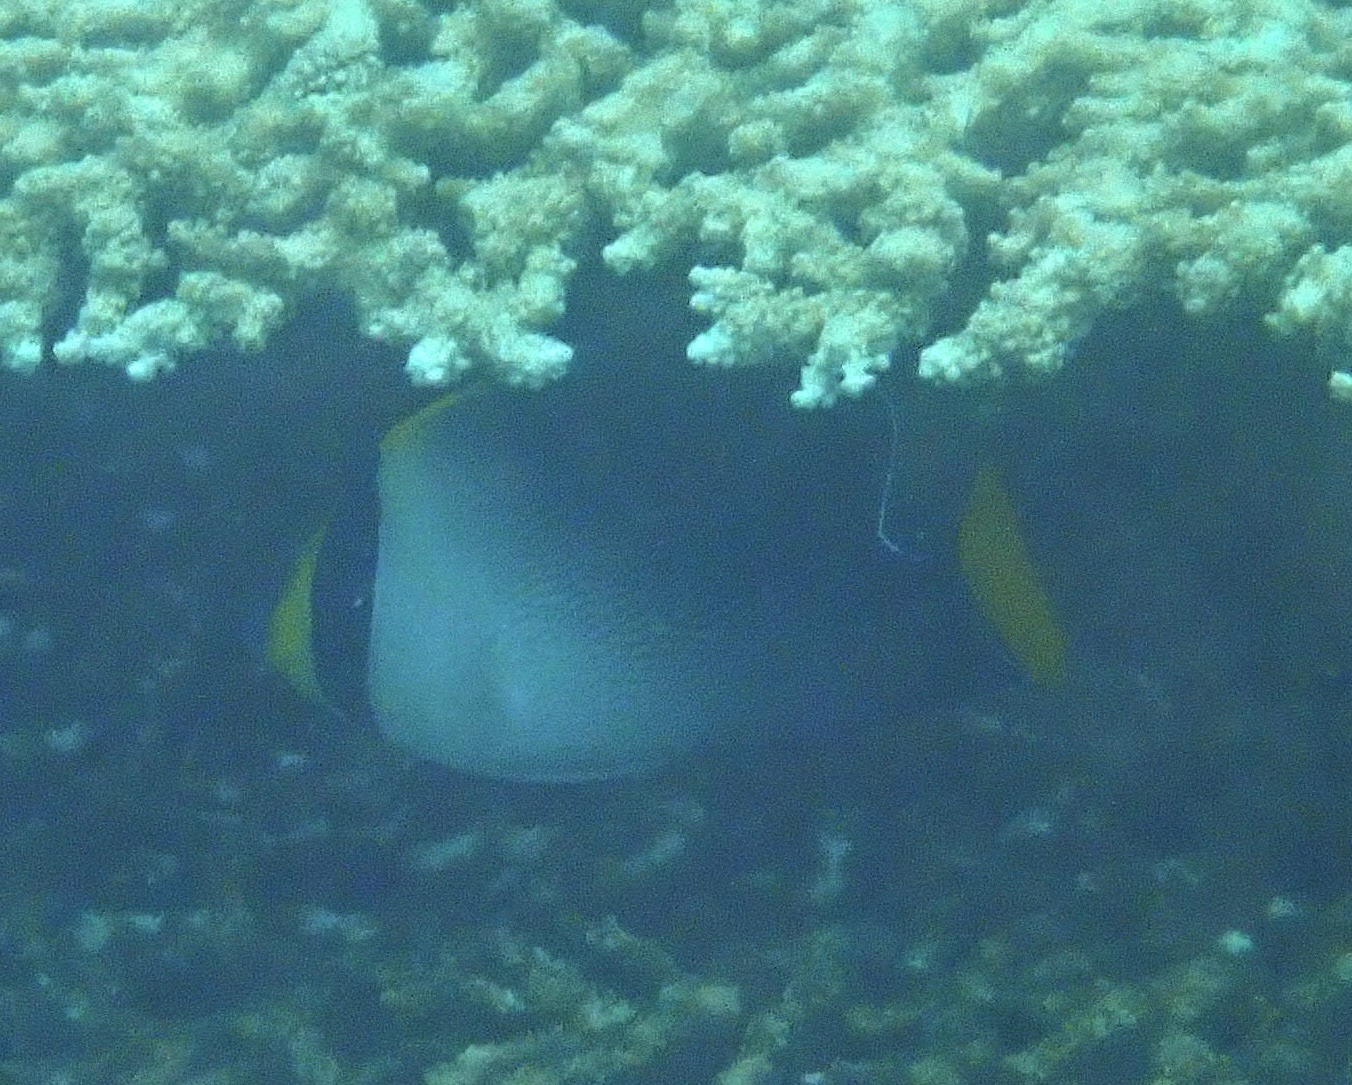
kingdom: Animalia
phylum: Chordata
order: Perciformes
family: Pomacanthidae
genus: Chaetodontoplus
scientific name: Chaetodontoplus mesoleucus
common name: Vermiculated angelfish
